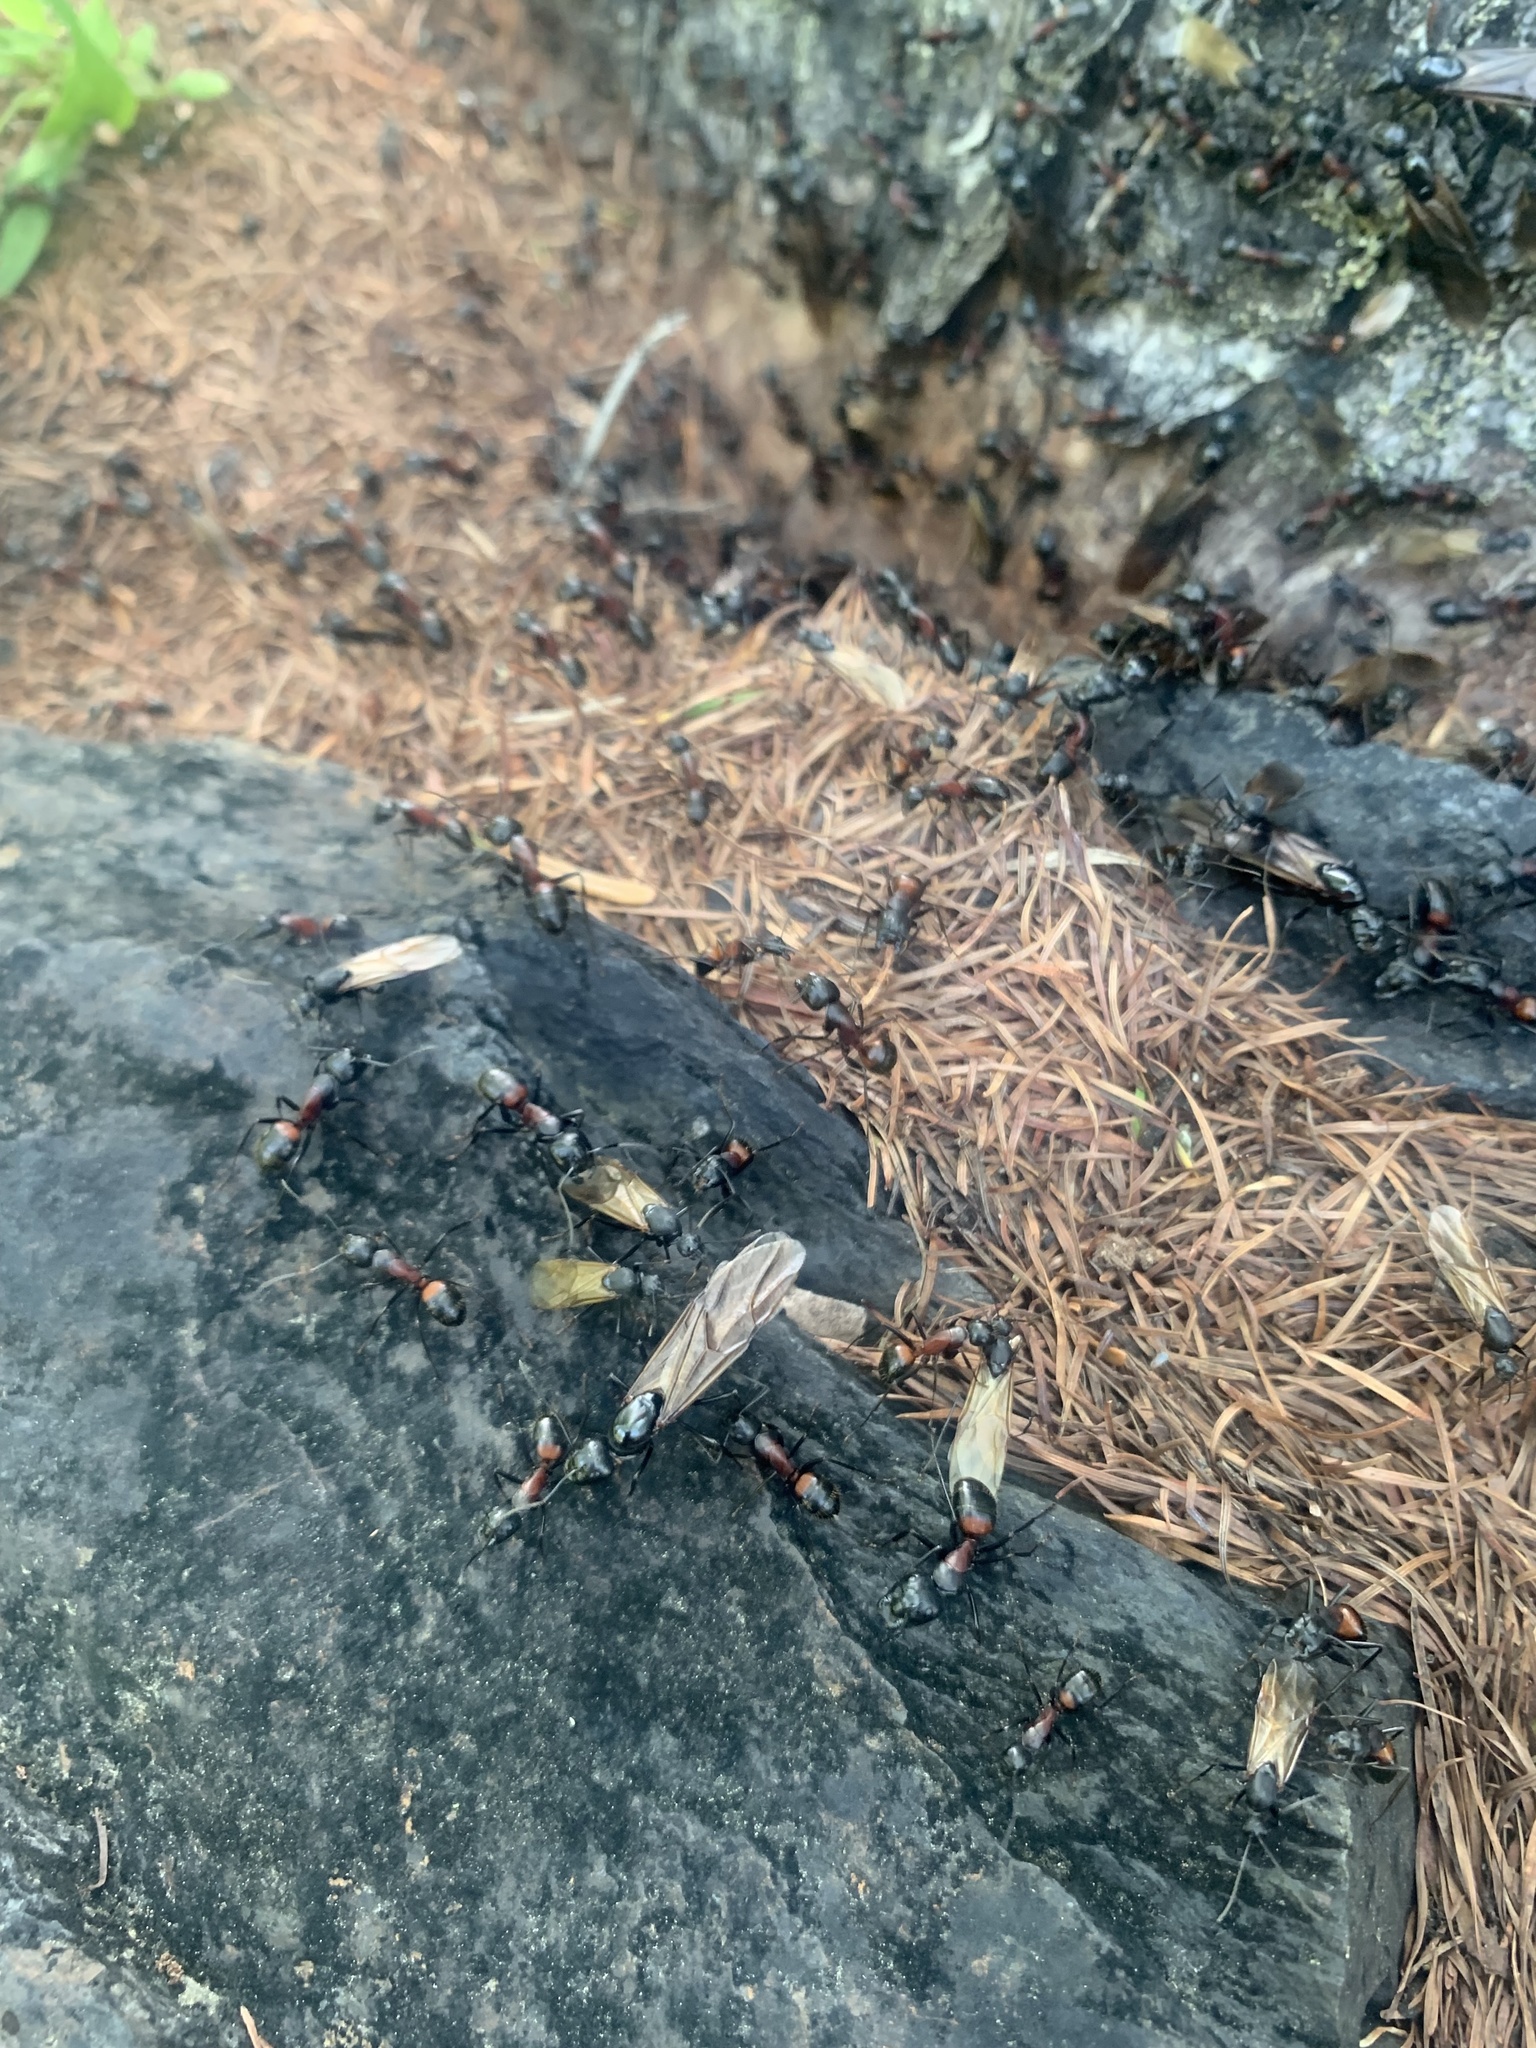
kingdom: Animalia
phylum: Arthropoda
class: Insecta
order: Hymenoptera
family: Formicidae
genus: Camponotus
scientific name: Camponotus obscuripes
